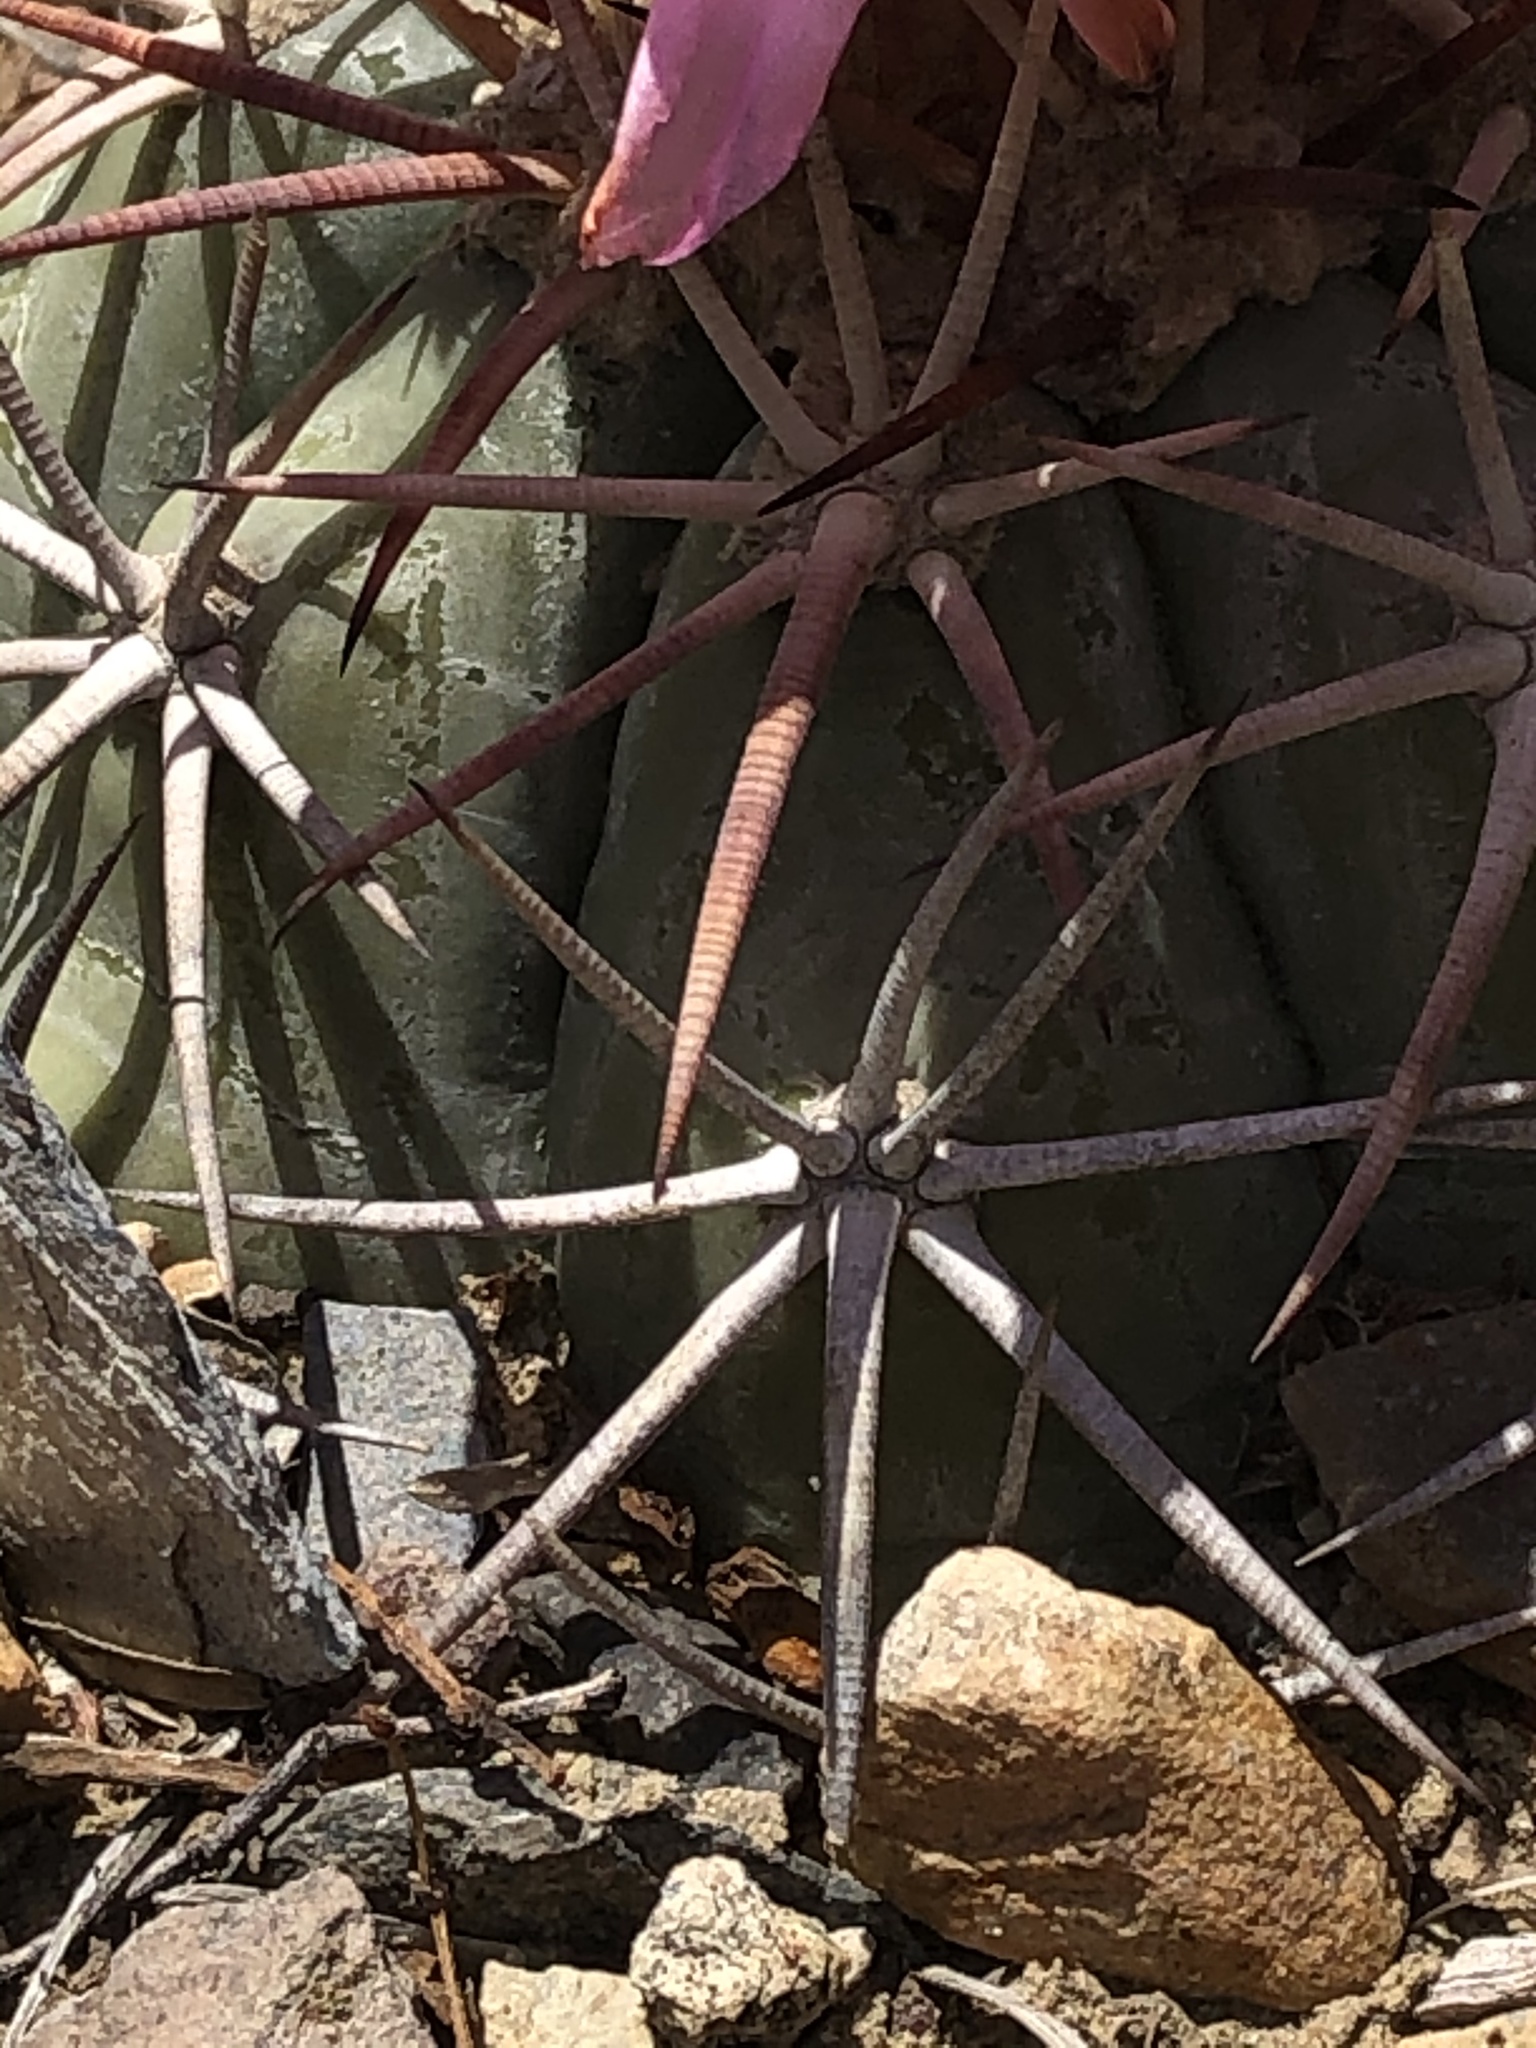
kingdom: Plantae
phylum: Tracheophyta
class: Magnoliopsida
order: Caryophyllales
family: Cactaceae
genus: Echinocactus
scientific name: Echinocactus horizonthalonius
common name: Devilshead
